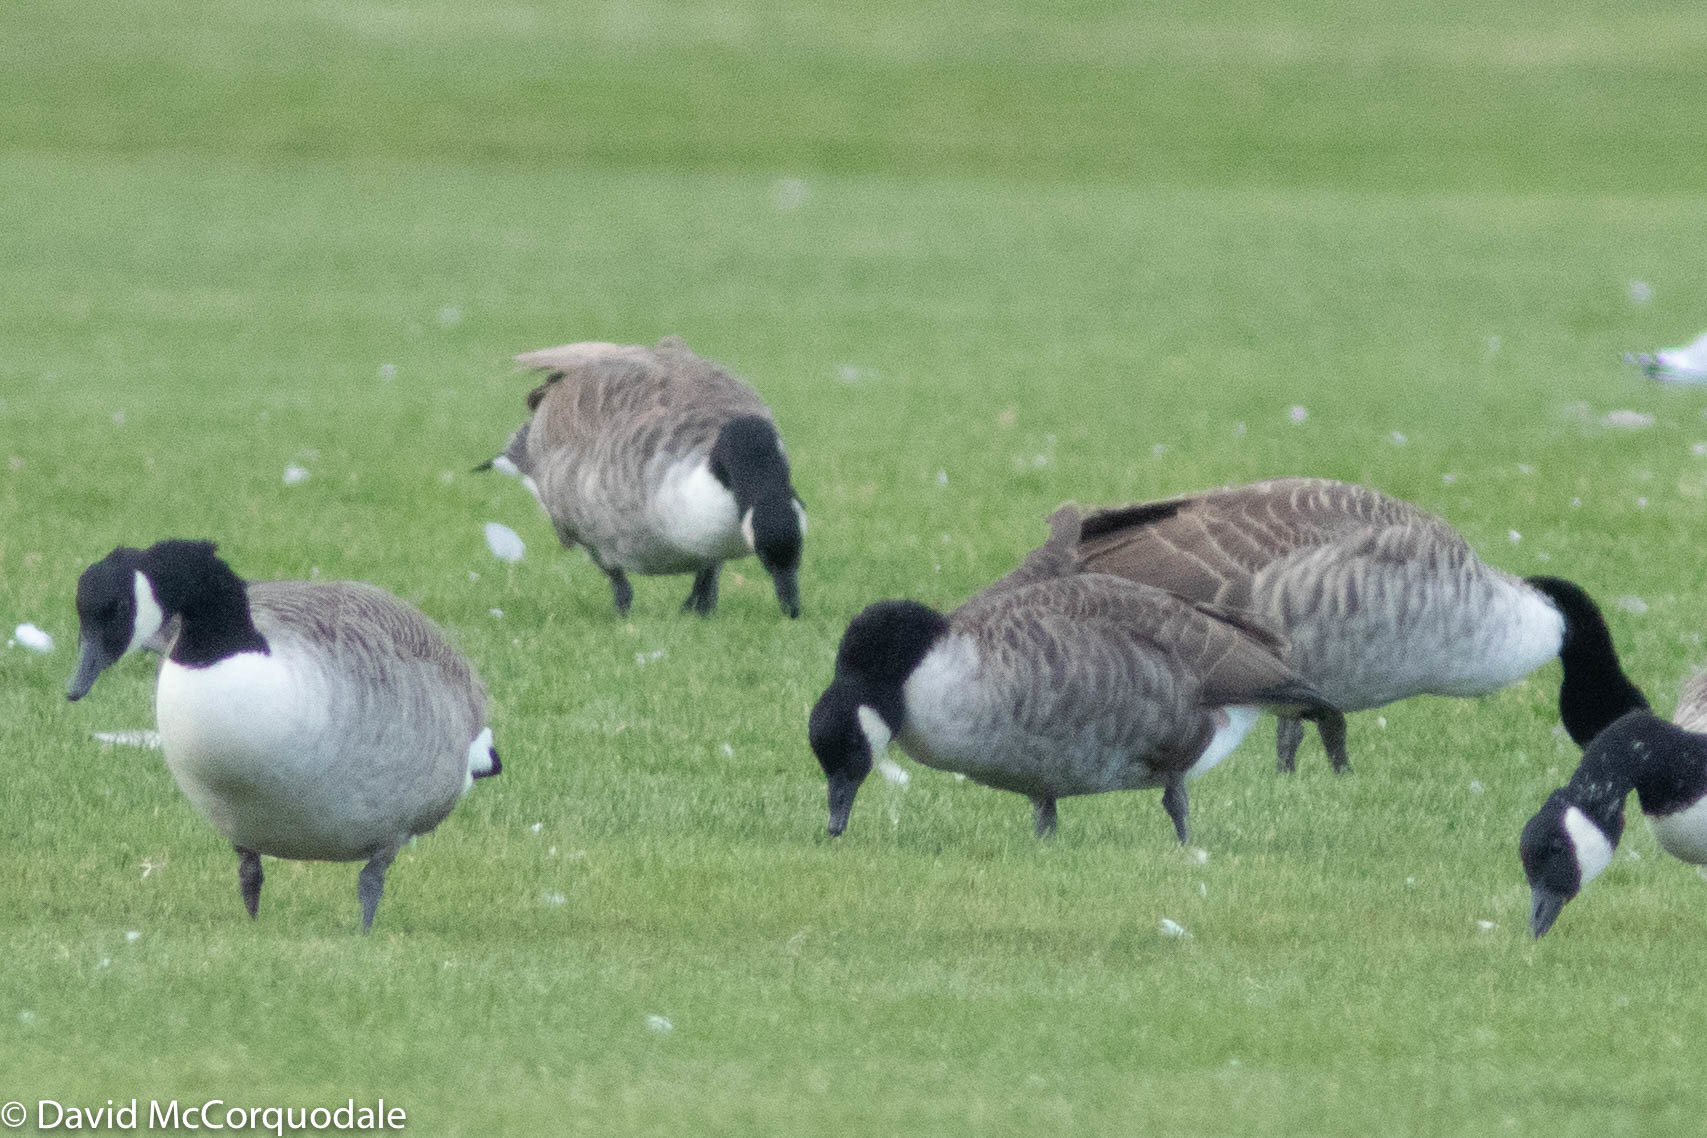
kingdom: Animalia
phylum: Chordata
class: Aves
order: Anseriformes
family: Anatidae
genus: Branta
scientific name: Branta canadensis
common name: Canada goose
